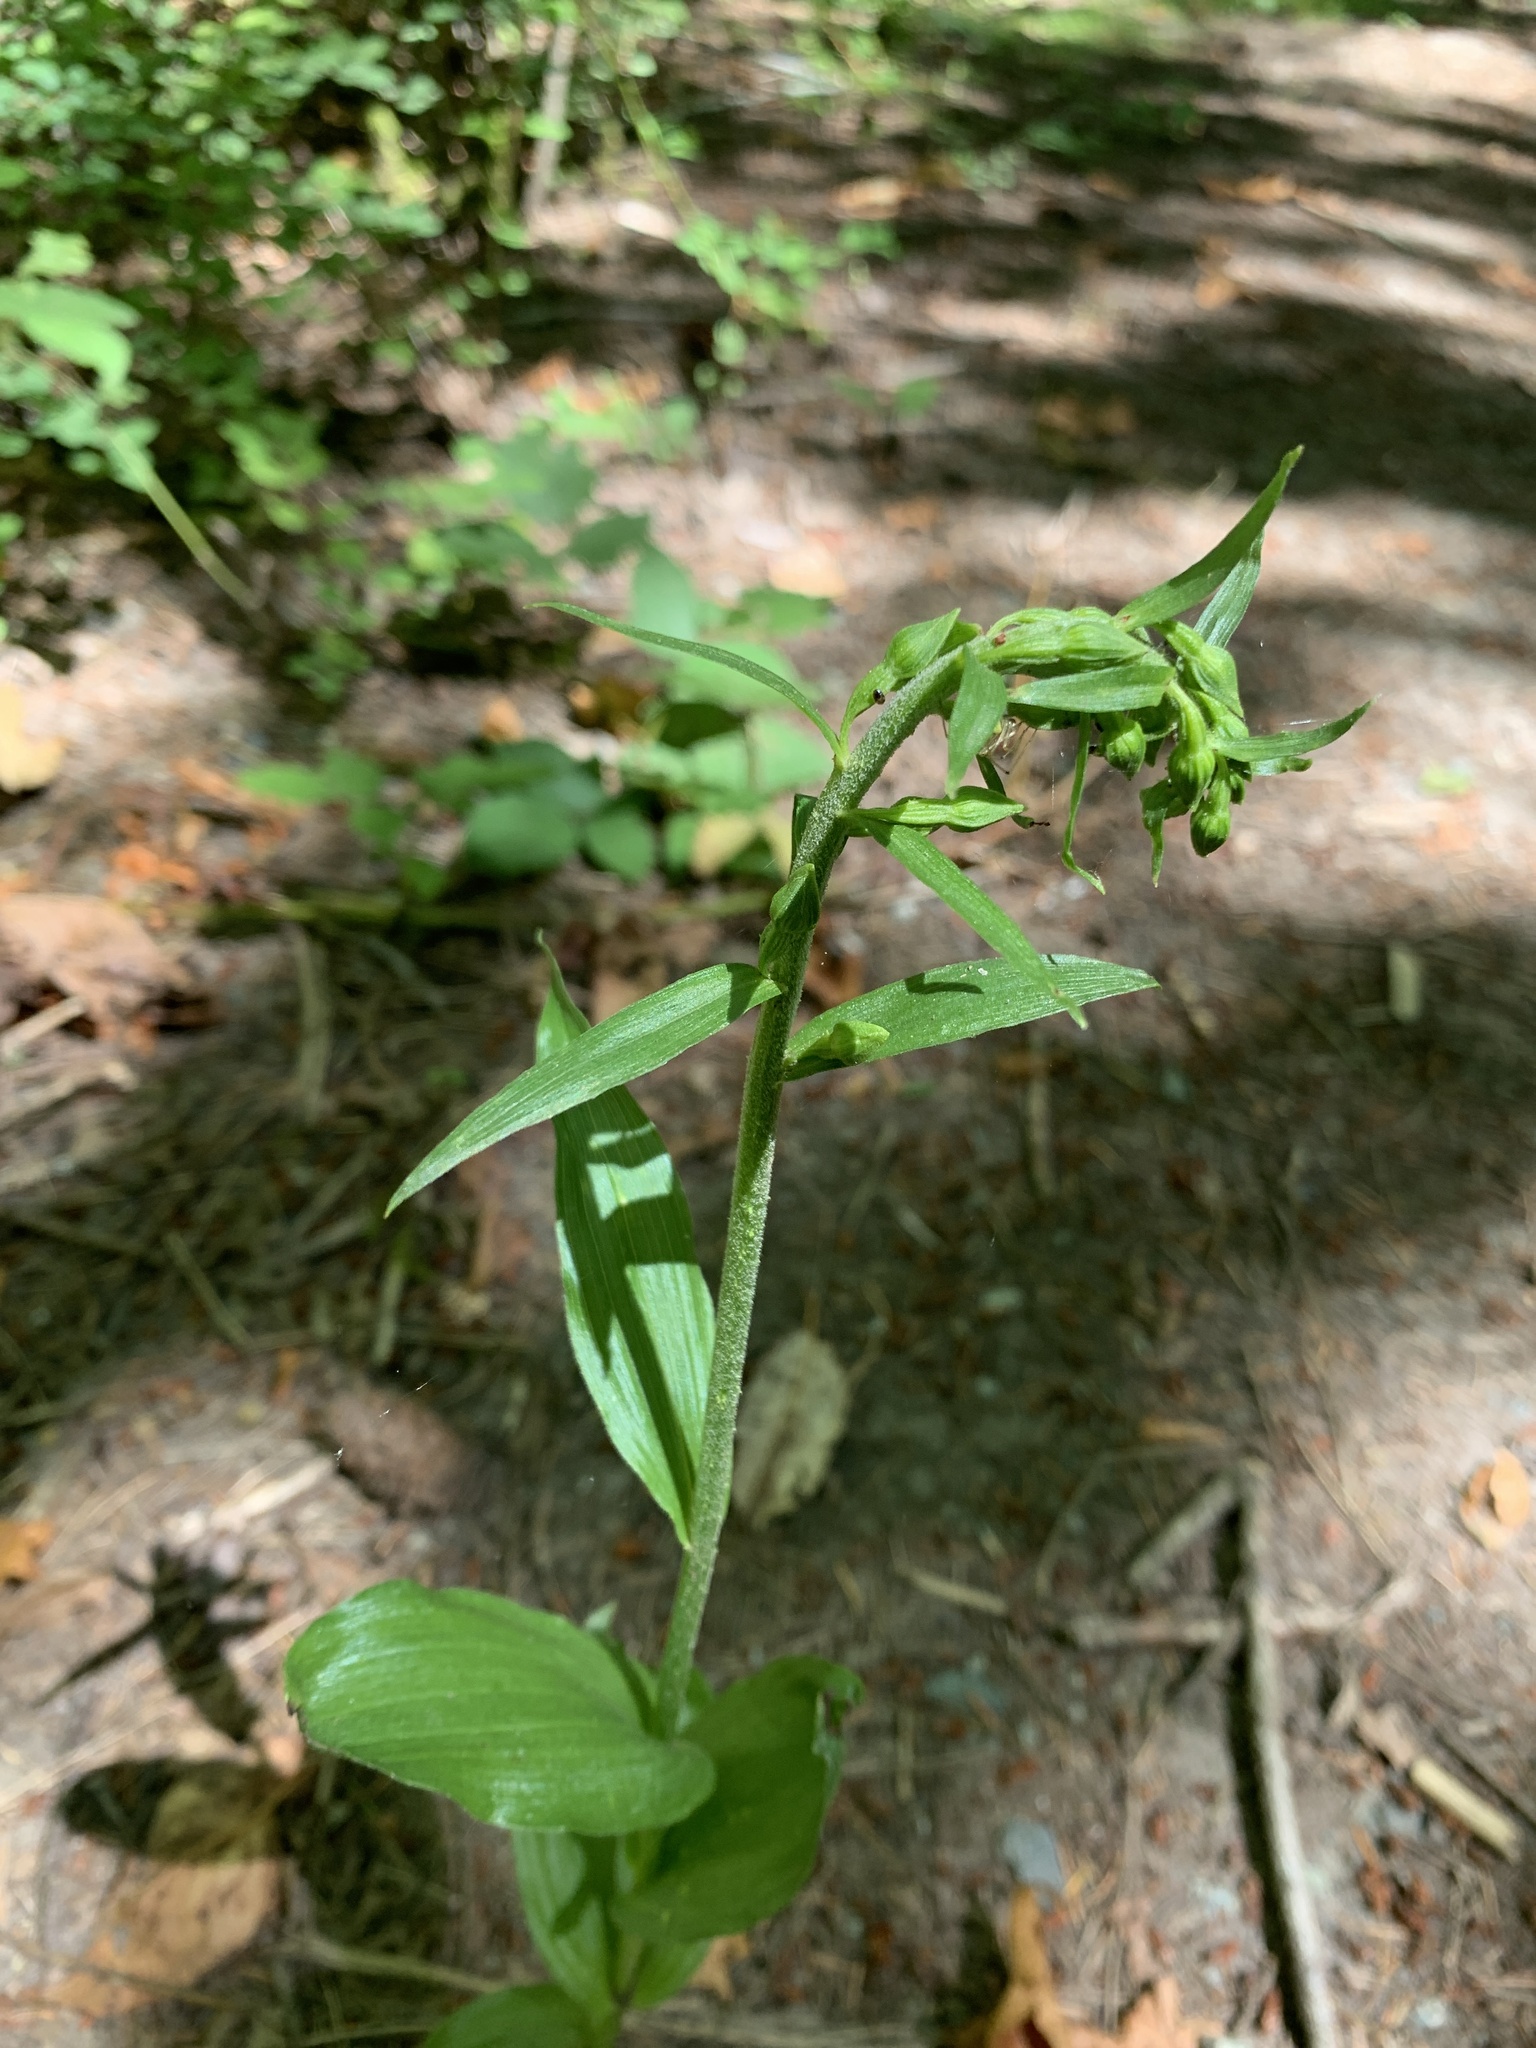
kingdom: Plantae
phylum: Tracheophyta
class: Liliopsida
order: Asparagales
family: Orchidaceae
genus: Epipactis
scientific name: Epipactis helleborine
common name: Broad-leaved helleborine
